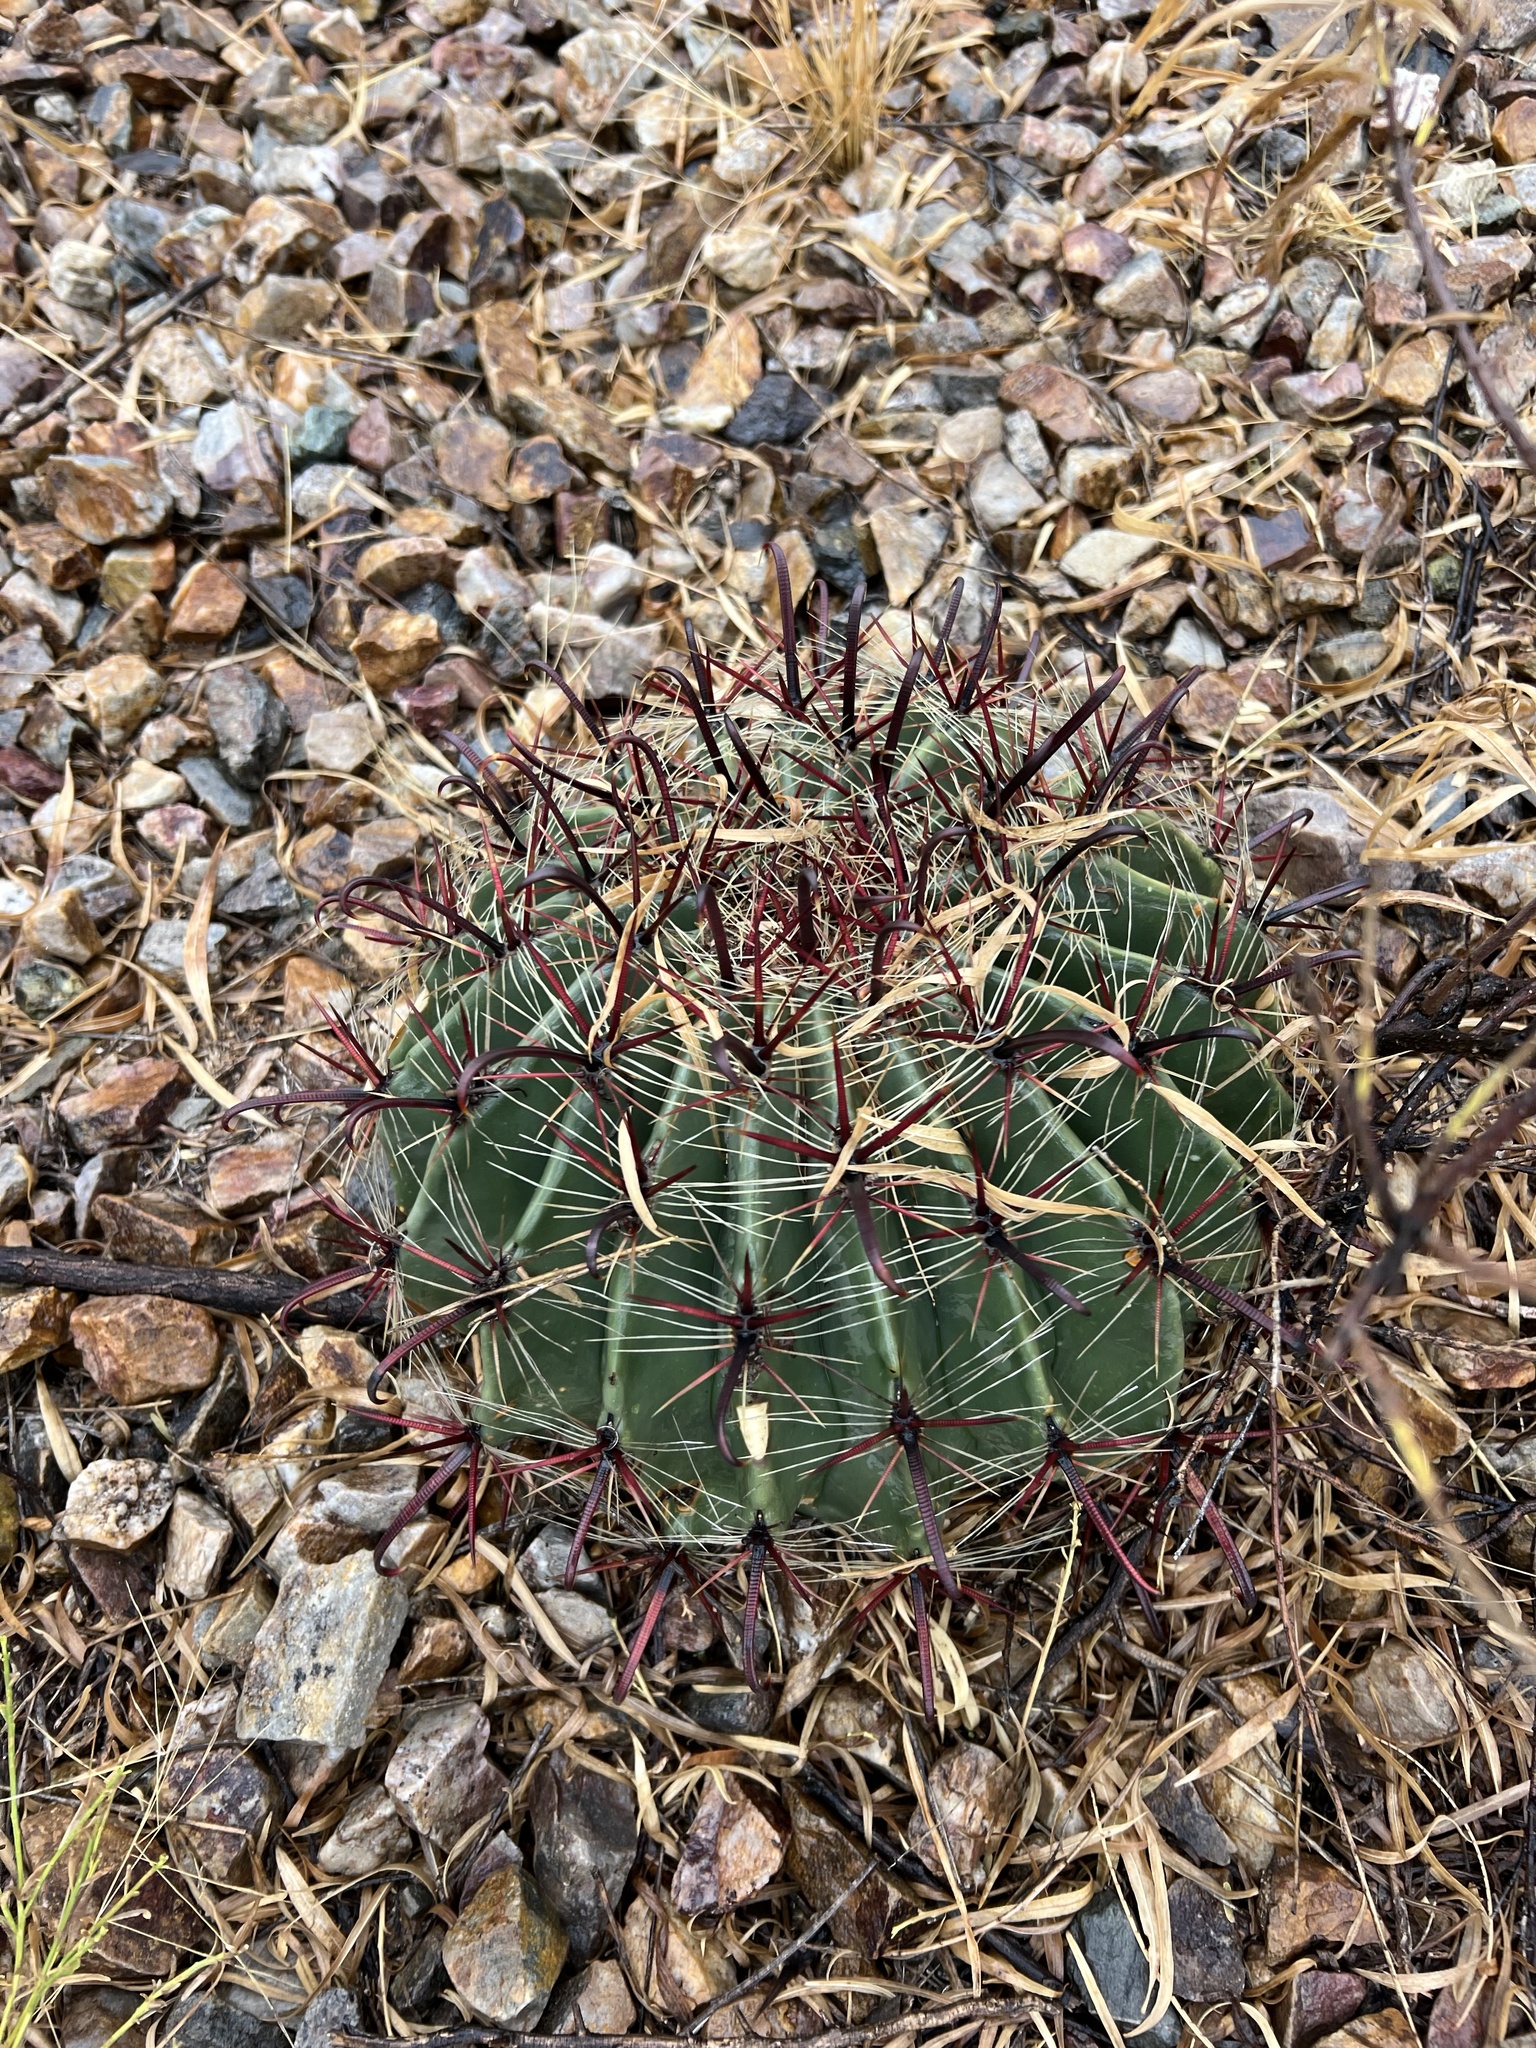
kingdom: Plantae
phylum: Tracheophyta
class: Magnoliopsida
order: Caryophyllales
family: Cactaceae
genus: Ferocactus
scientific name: Ferocactus wislizeni
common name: Candy barrel cactus
